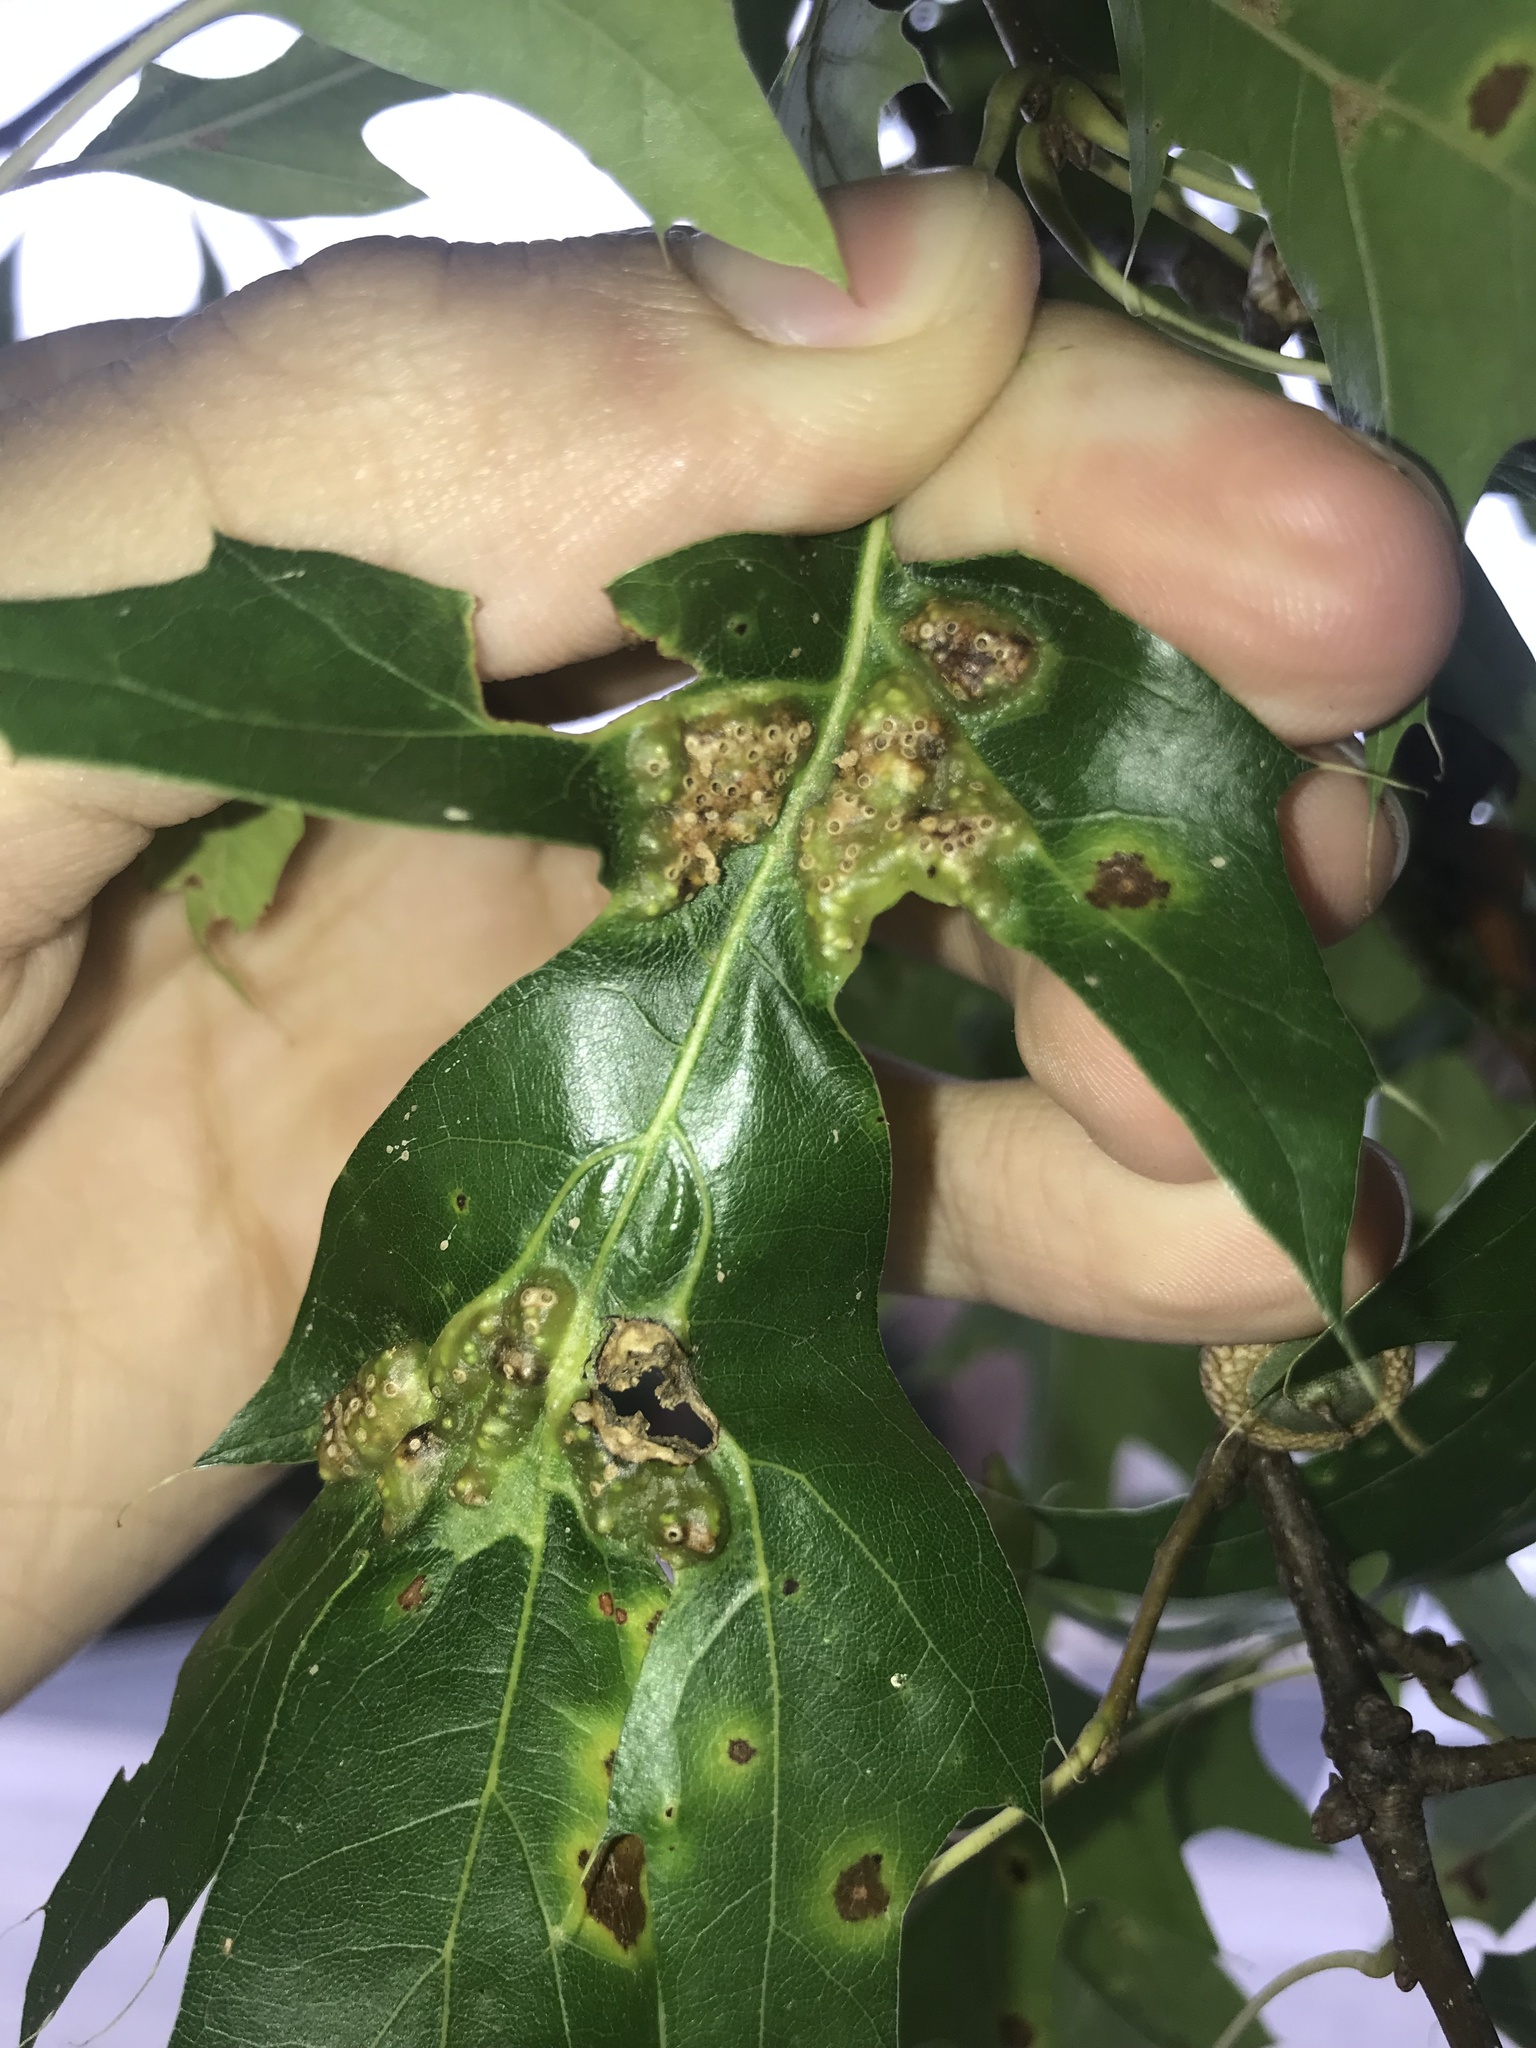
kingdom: Animalia
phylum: Arthropoda
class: Insecta
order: Hymenoptera
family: Cynipidae
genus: Callirhytis
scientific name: Callirhytis
